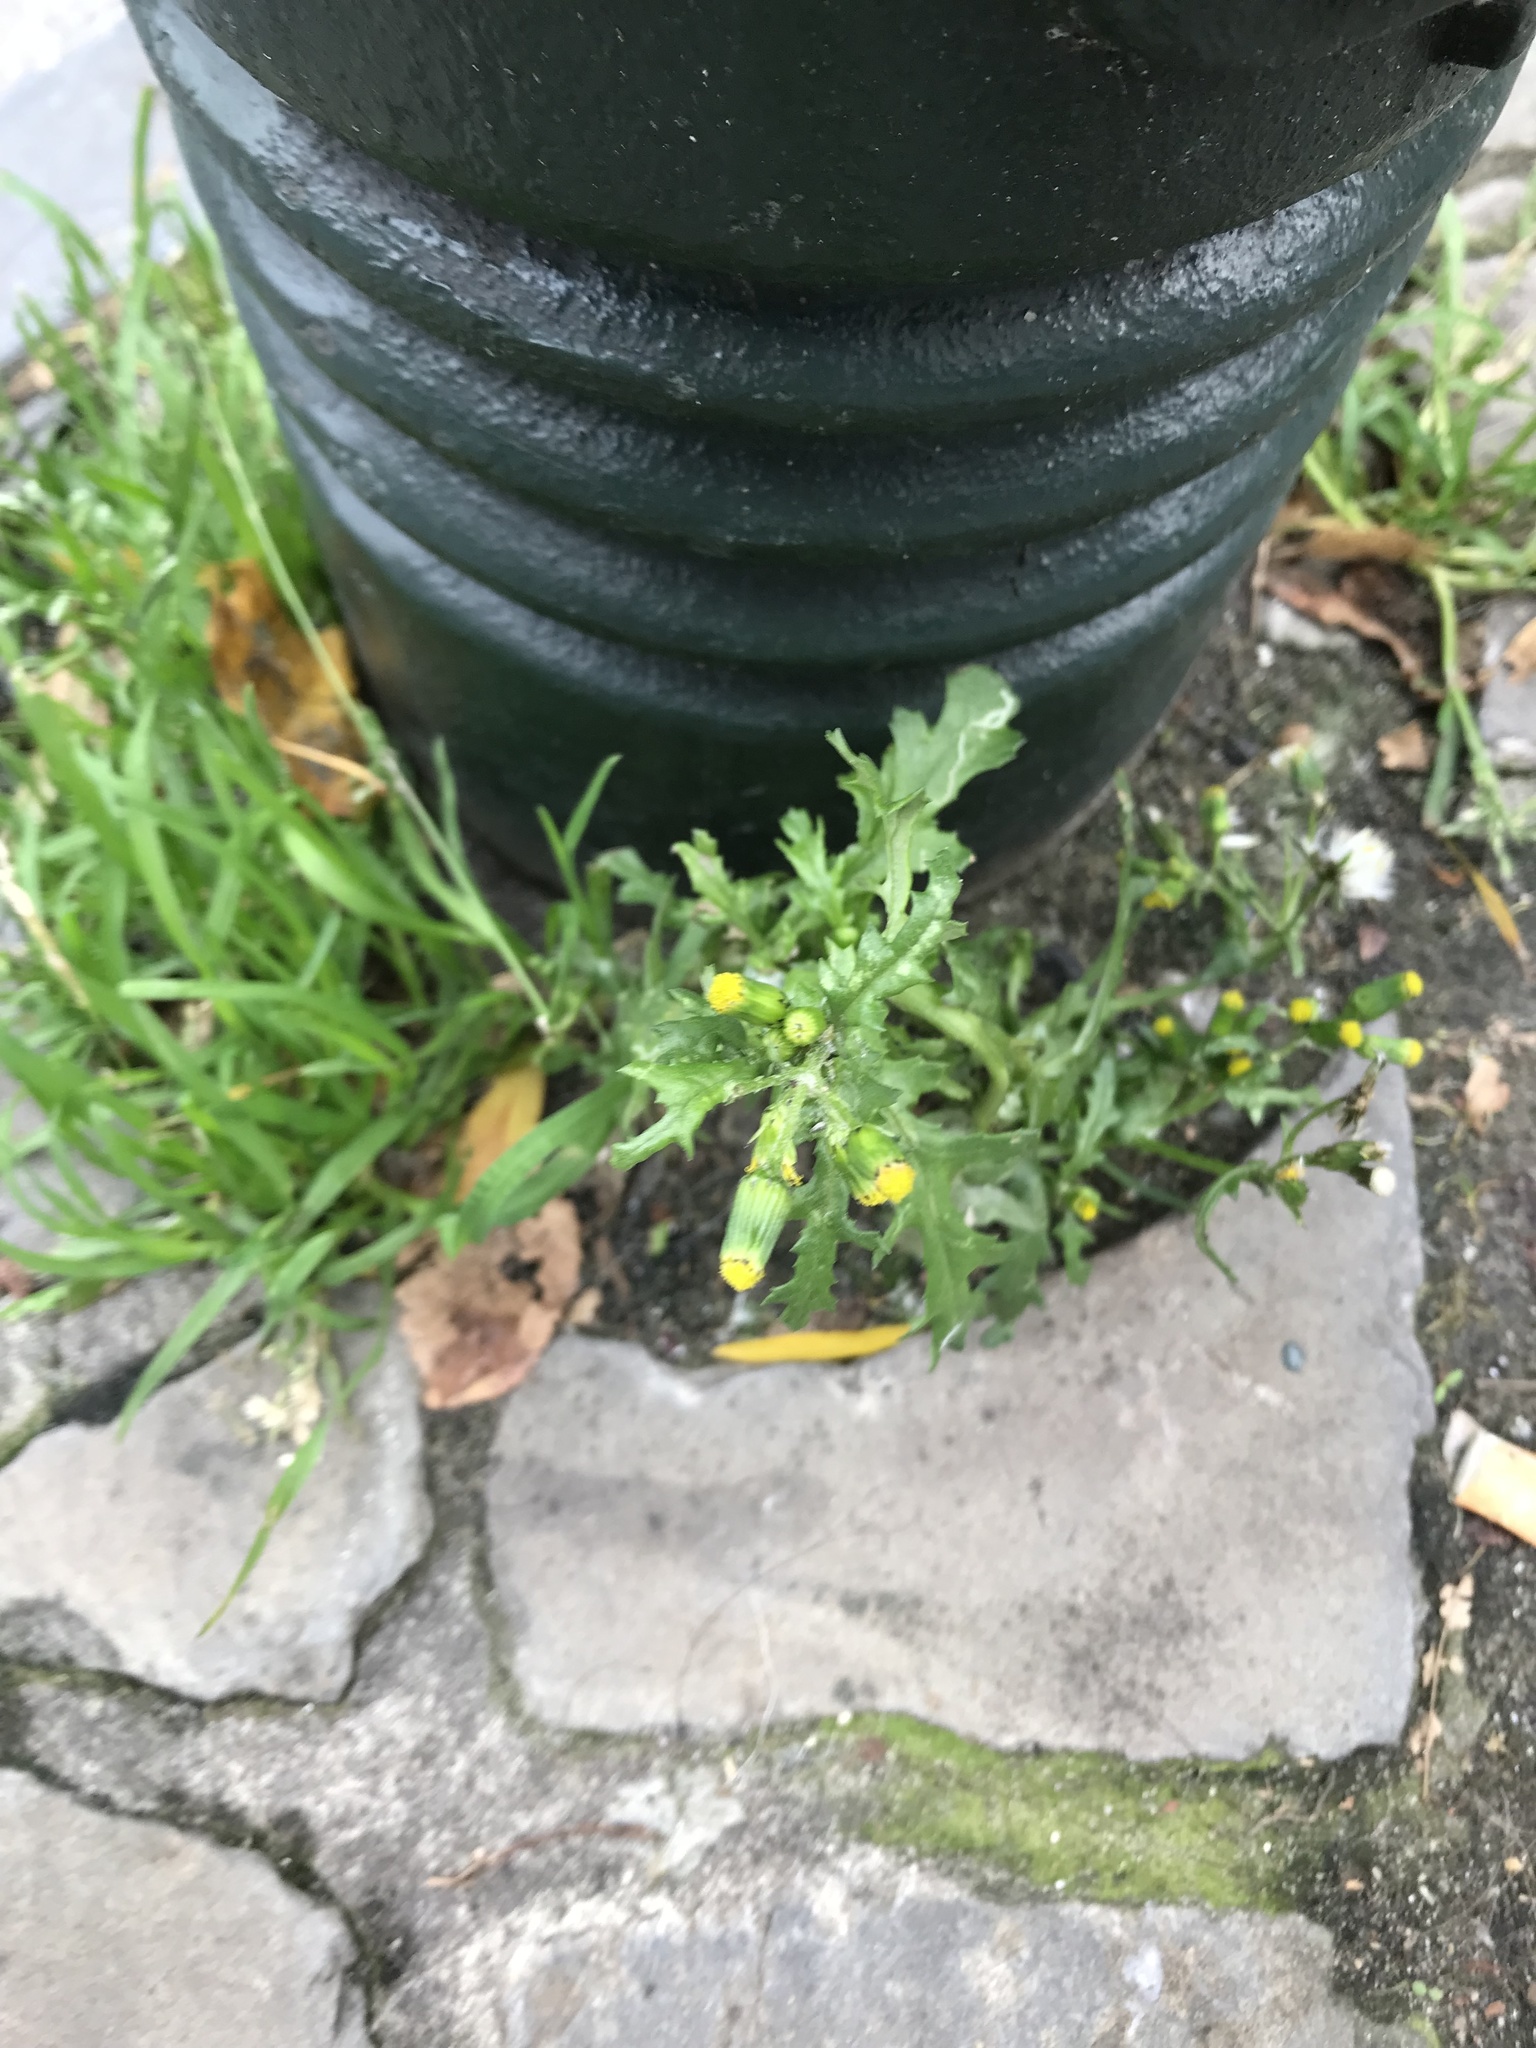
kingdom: Plantae
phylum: Tracheophyta
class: Magnoliopsida
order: Asterales
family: Asteraceae
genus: Senecio
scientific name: Senecio vulgaris
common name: Old-man-in-the-spring
